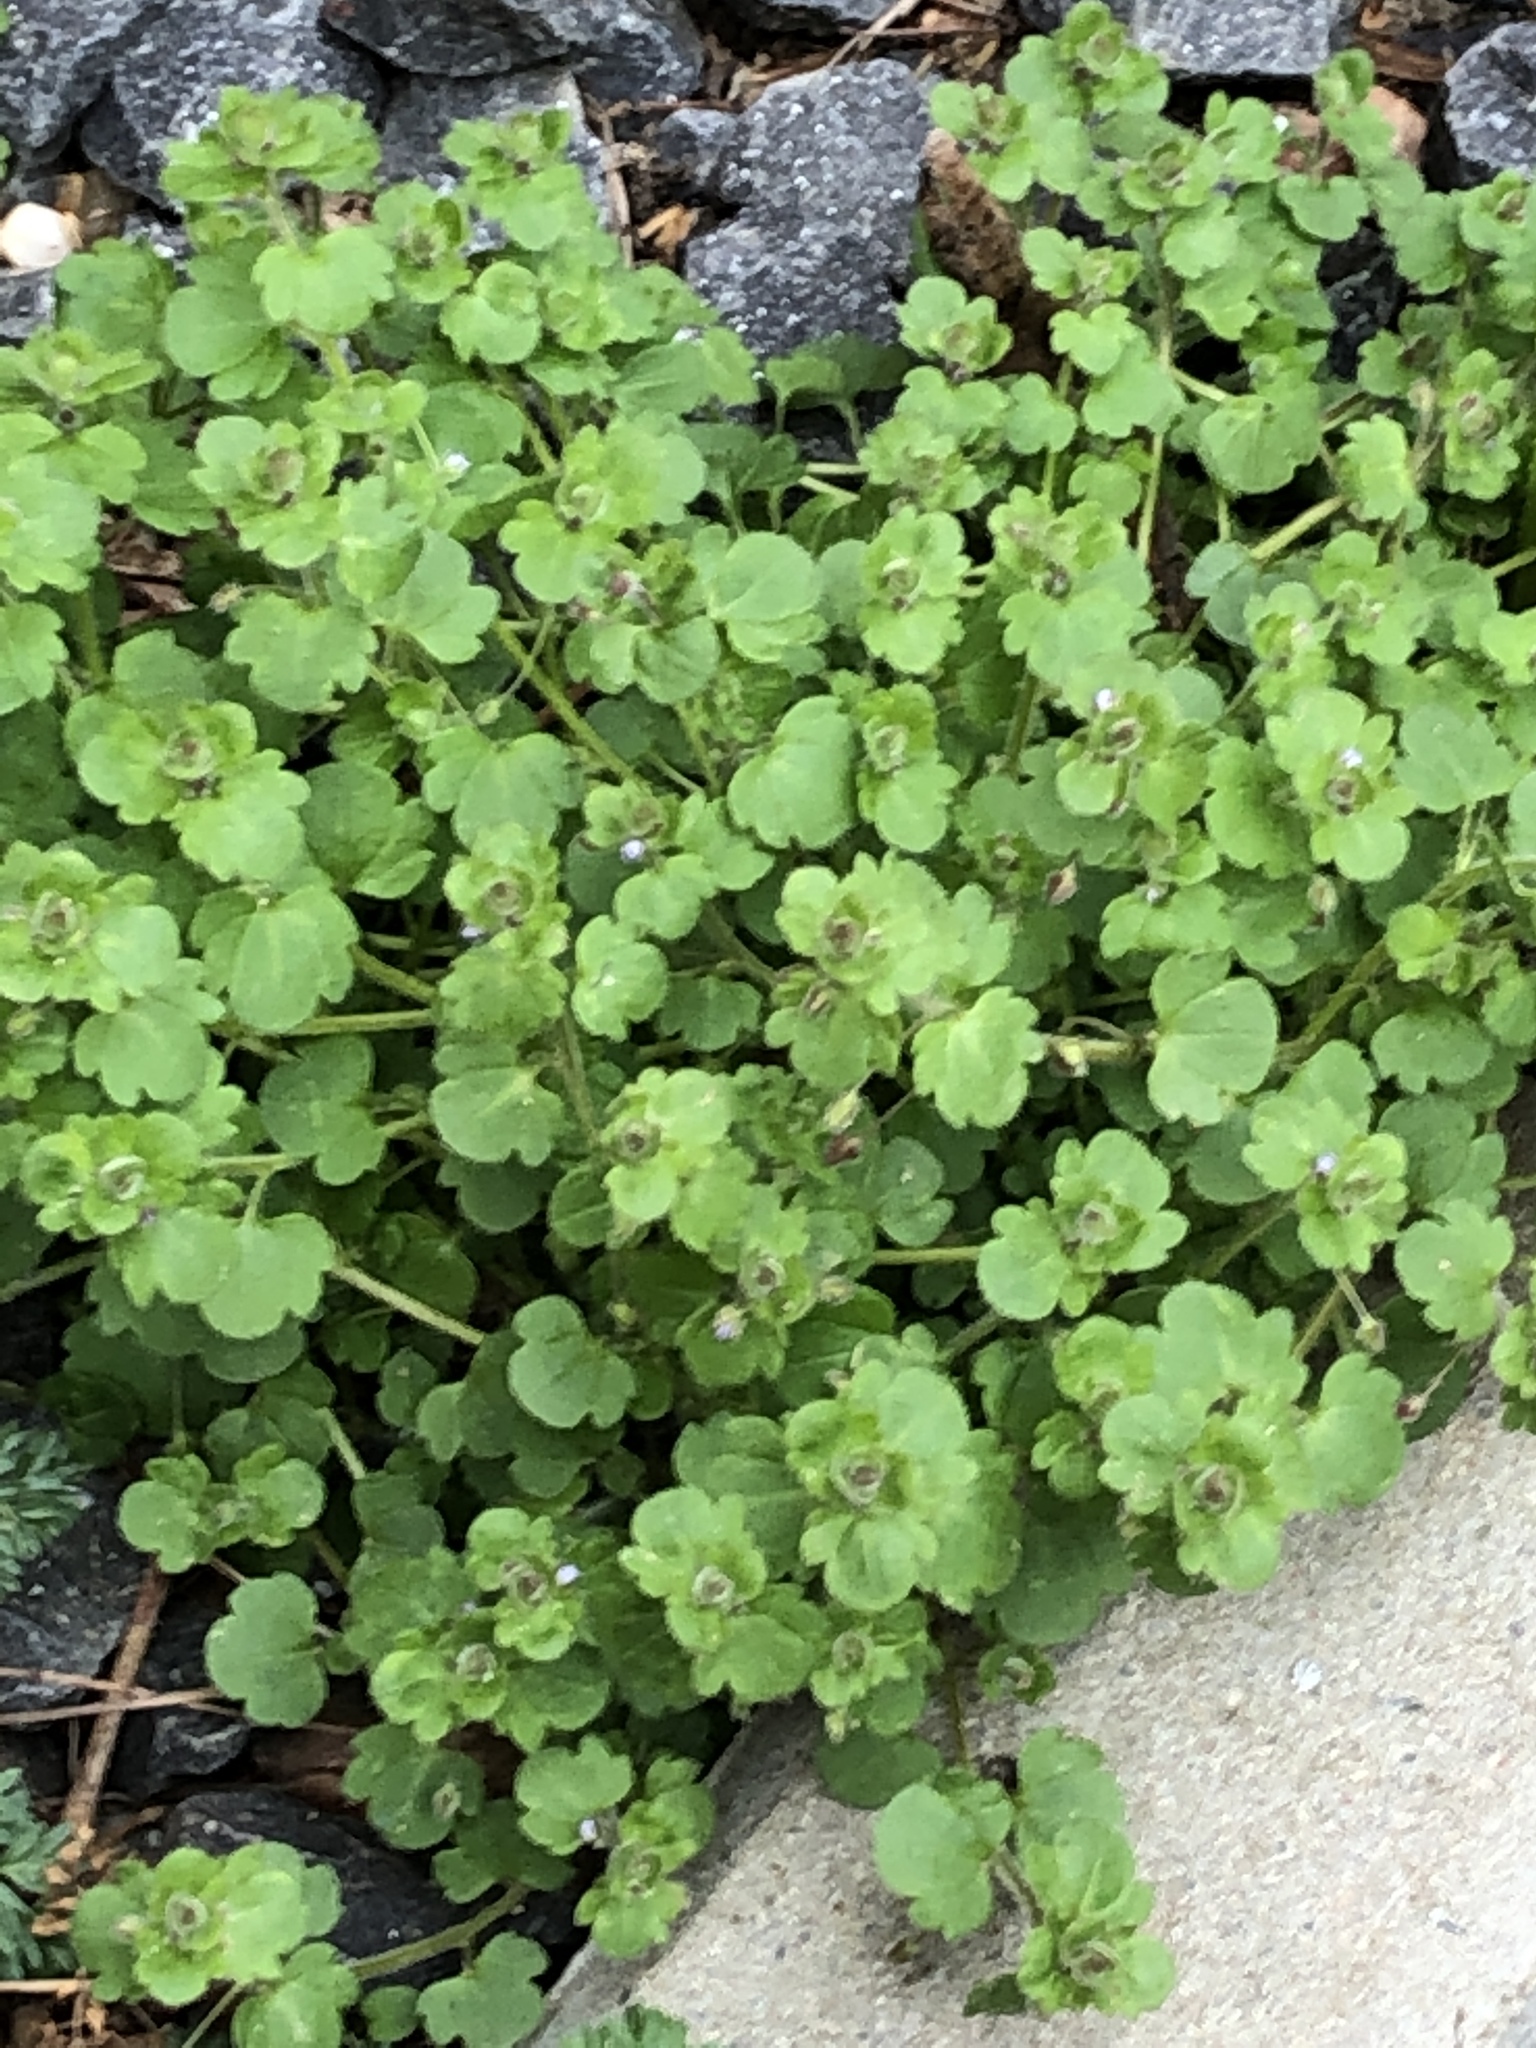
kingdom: Plantae
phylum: Tracheophyta
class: Magnoliopsida
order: Lamiales
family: Plantaginaceae
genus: Veronica
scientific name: Veronica sublobata
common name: False ivy-leaved speedwell
